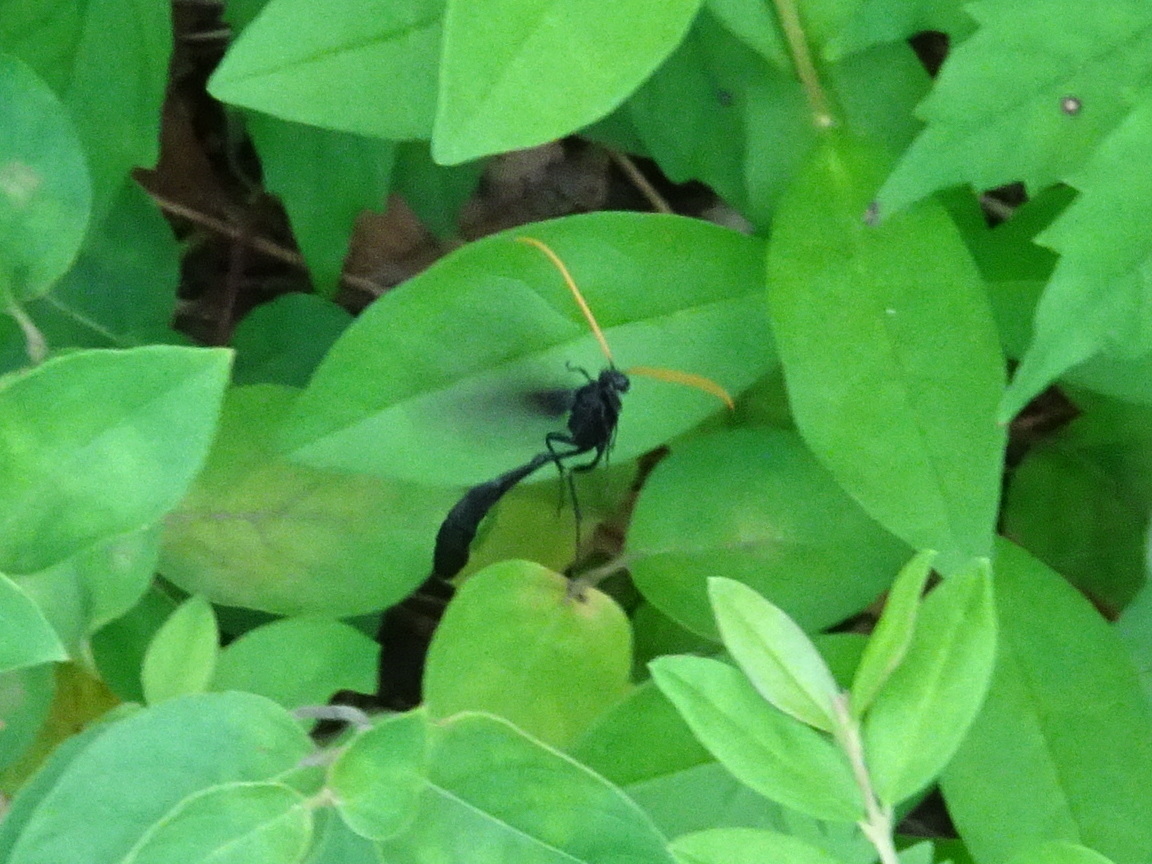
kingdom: Animalia
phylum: Arthropoda
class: Insecta
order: Hymenoptera
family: Ichneumonidae
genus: Thyreodon
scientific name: Thyreodon atricolor
